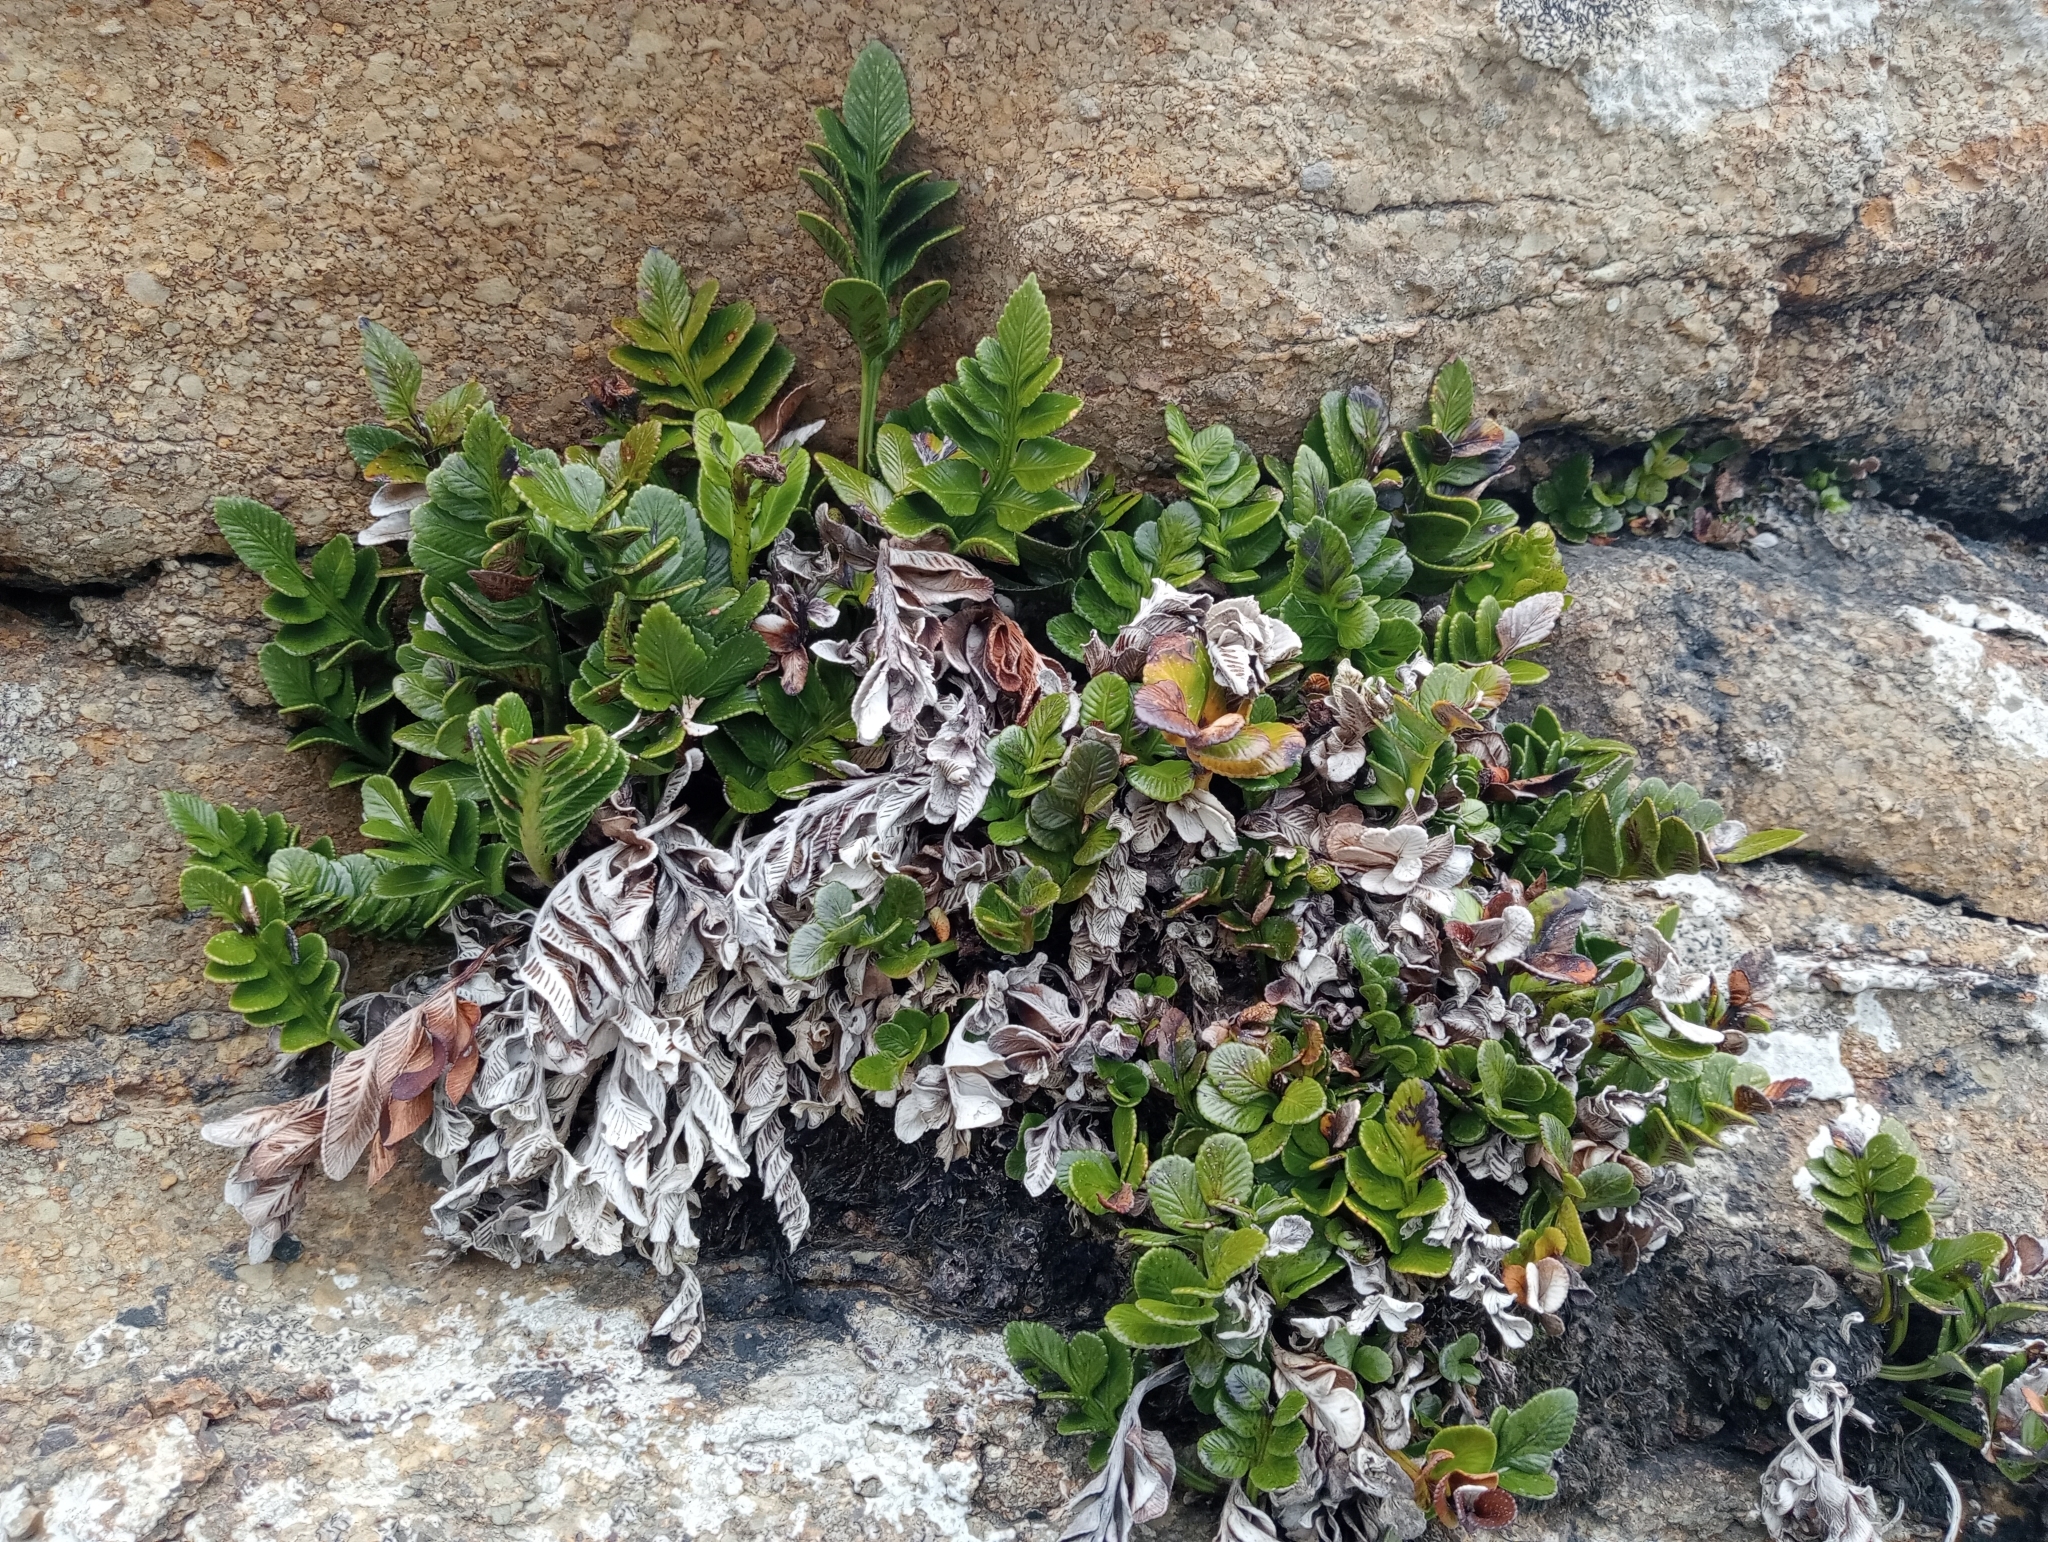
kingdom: Plantae
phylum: Tracheophyta
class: Polypodiopsida
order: Polypodiales
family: Aspleniaceae
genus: Asplenium
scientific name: Asplenium obtusatum
